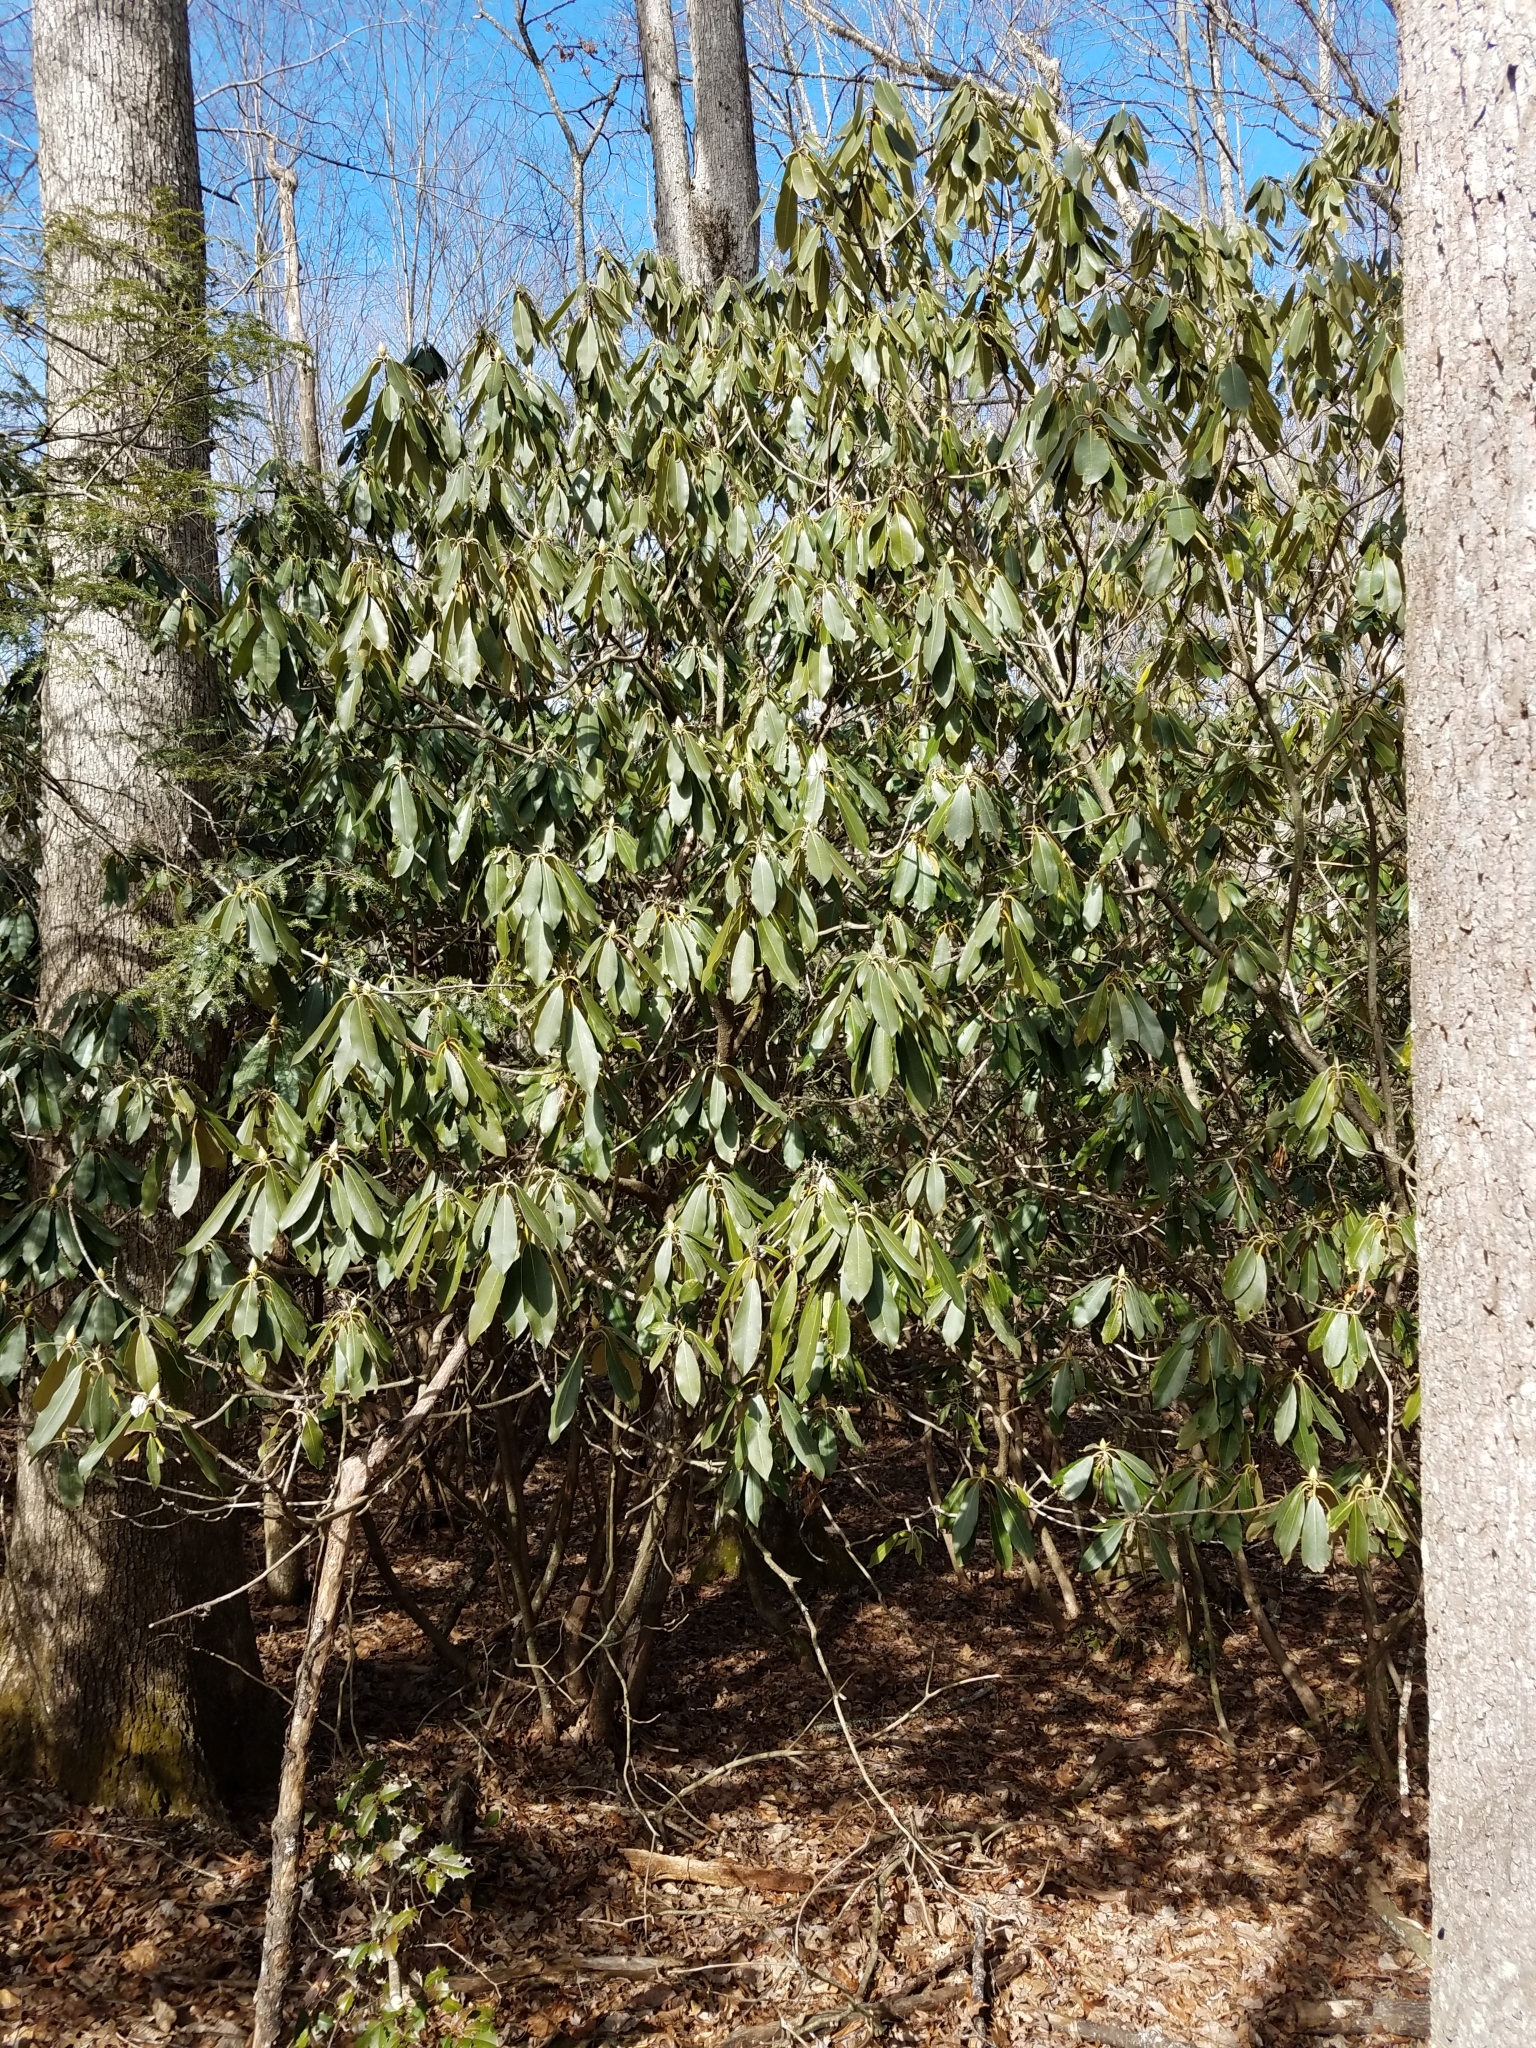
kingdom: Plantae
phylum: Tracheophyta
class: Magnoliopsida
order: Ericales
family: Ericaceae
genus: Rhododendron
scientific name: Rhododendron maximum
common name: Great rhododendron
